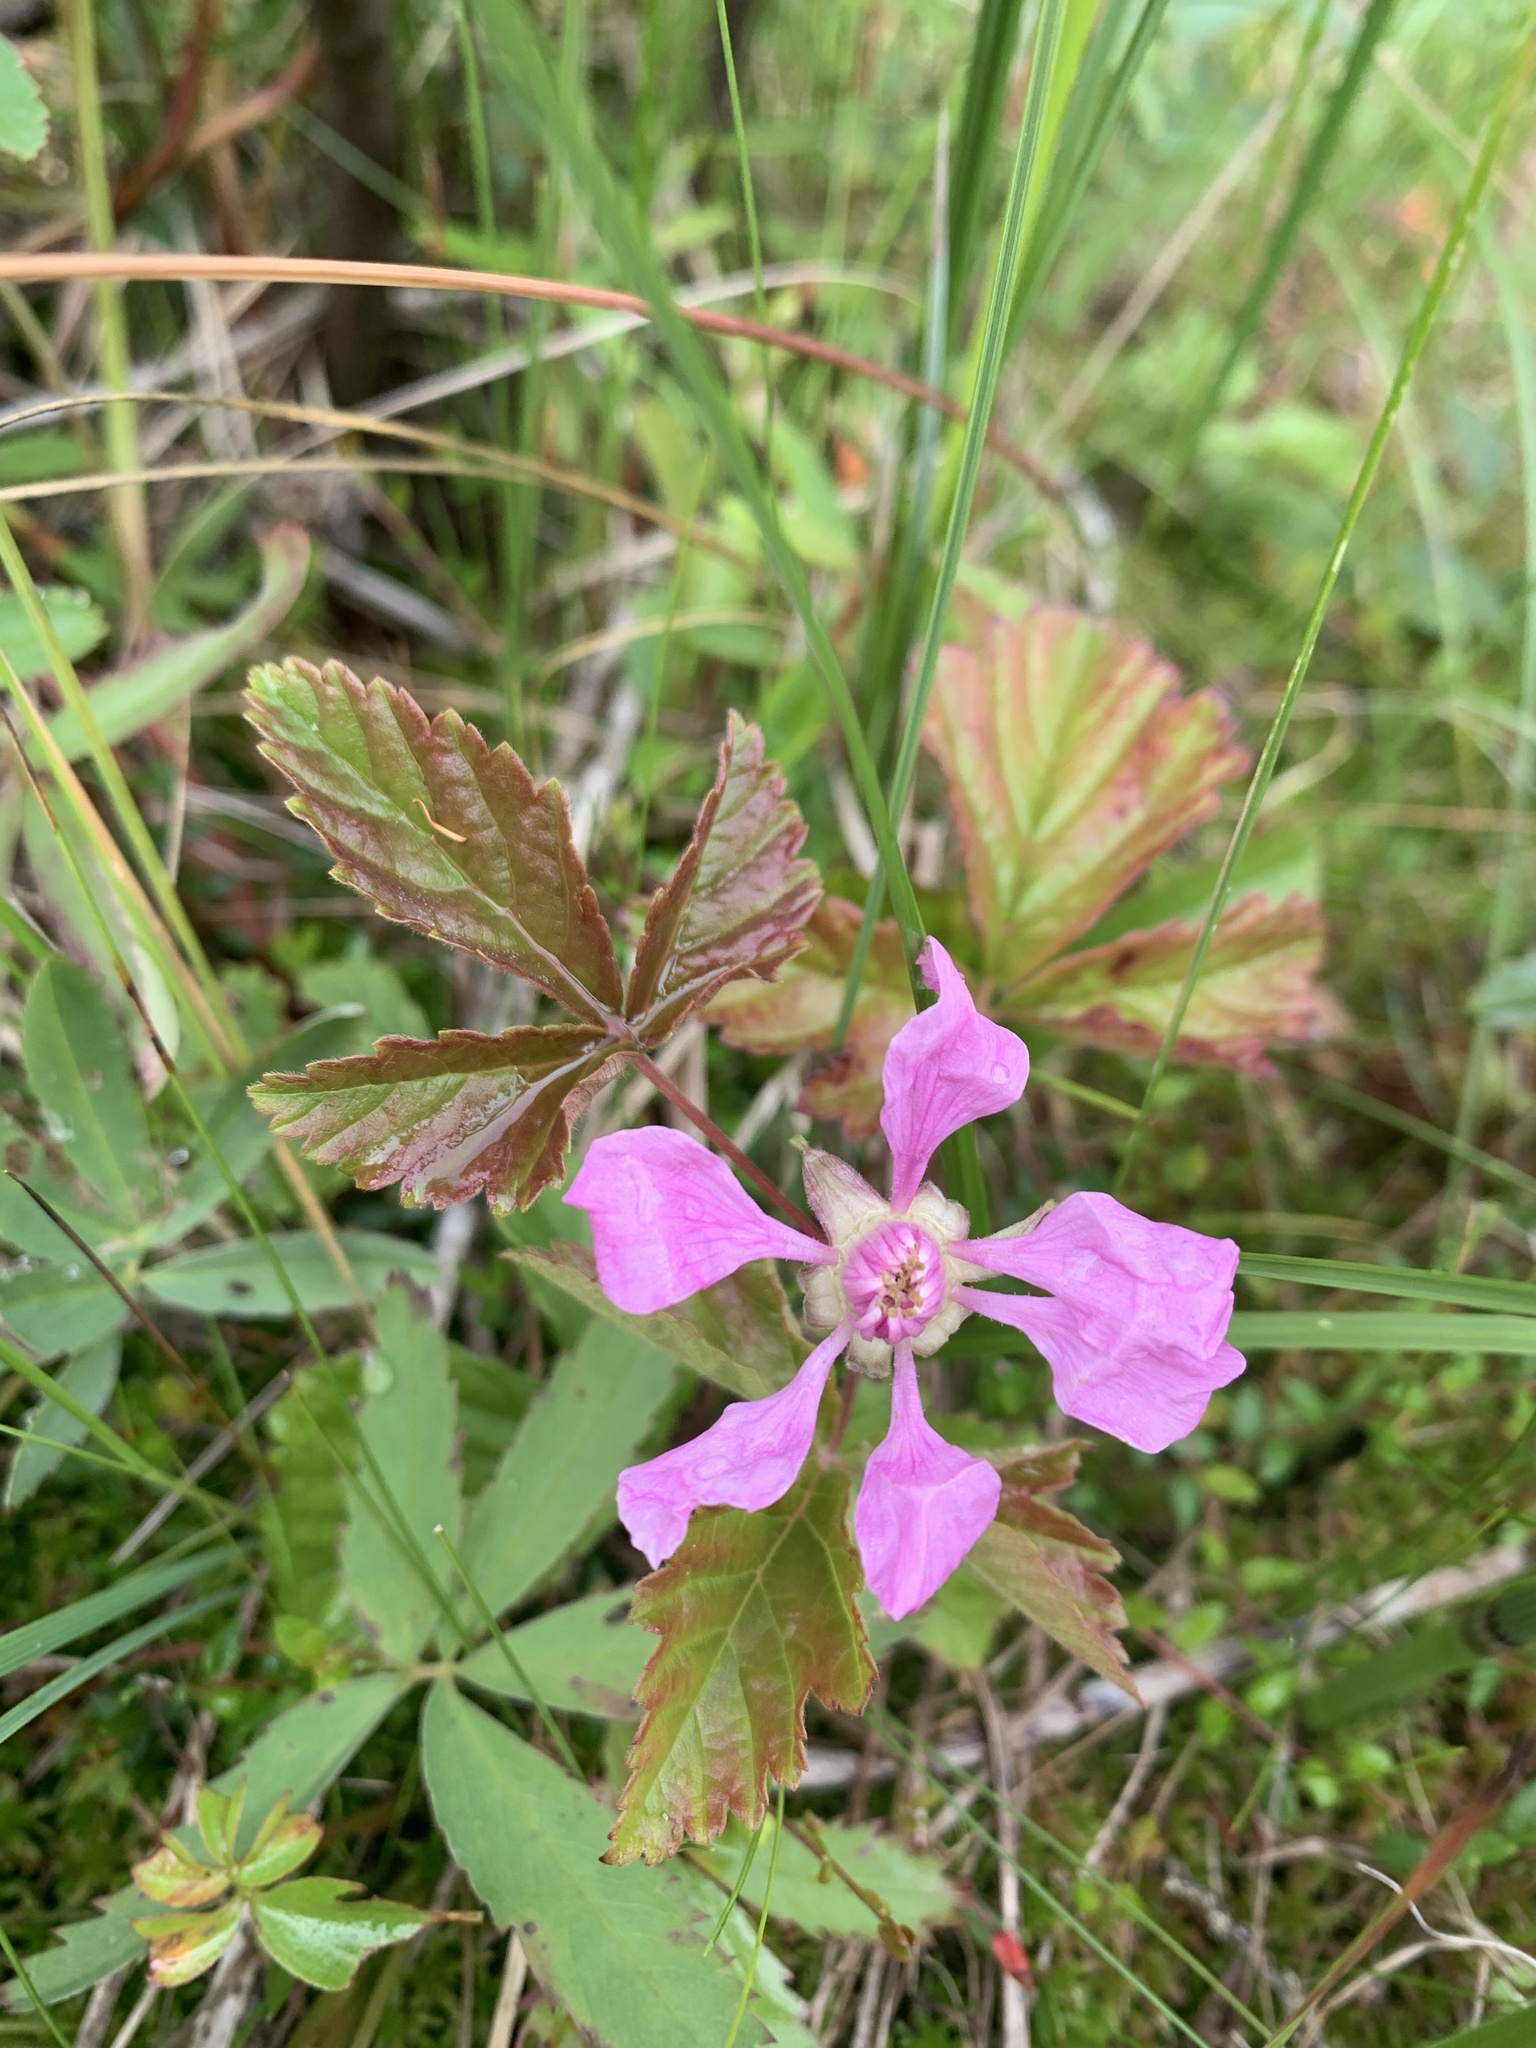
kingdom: Plantae
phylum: Tracheophyta
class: Magnoliopsida
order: Rosales
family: Rosaceae
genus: Rubus
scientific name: Rubus arcticus
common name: Arctic bramble
